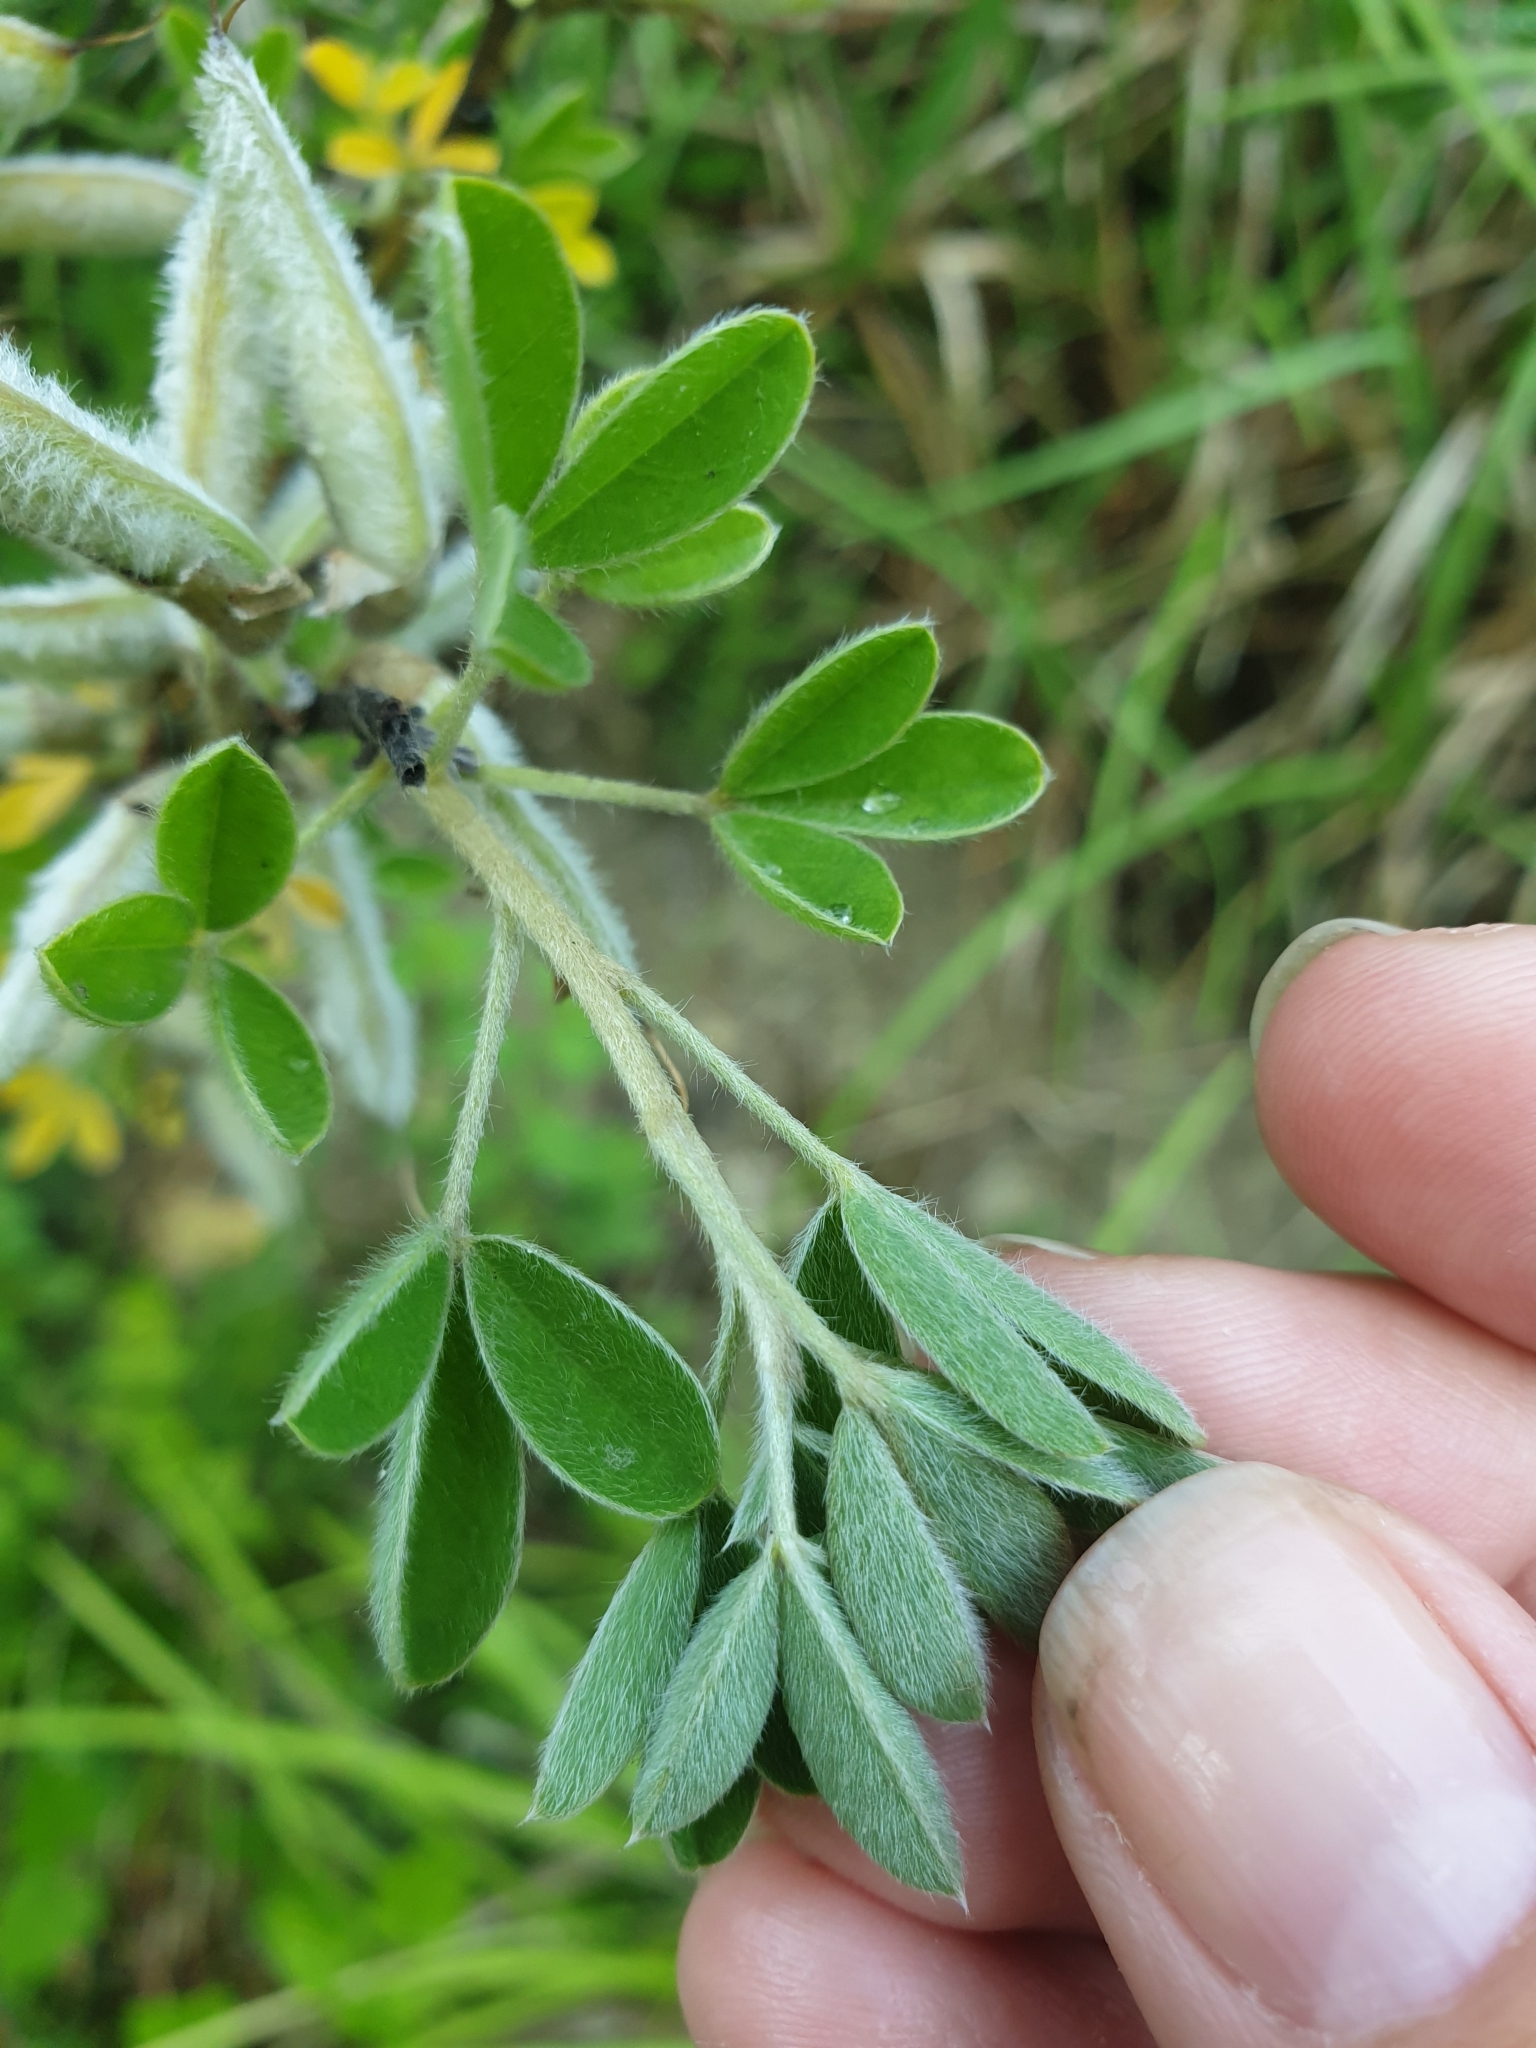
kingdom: Plantae
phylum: Tracheophyta
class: Magnoliopsida
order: Fabales
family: Fabaceae
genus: Chamaecytisus
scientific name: Chamaecytisus ruthenicus
